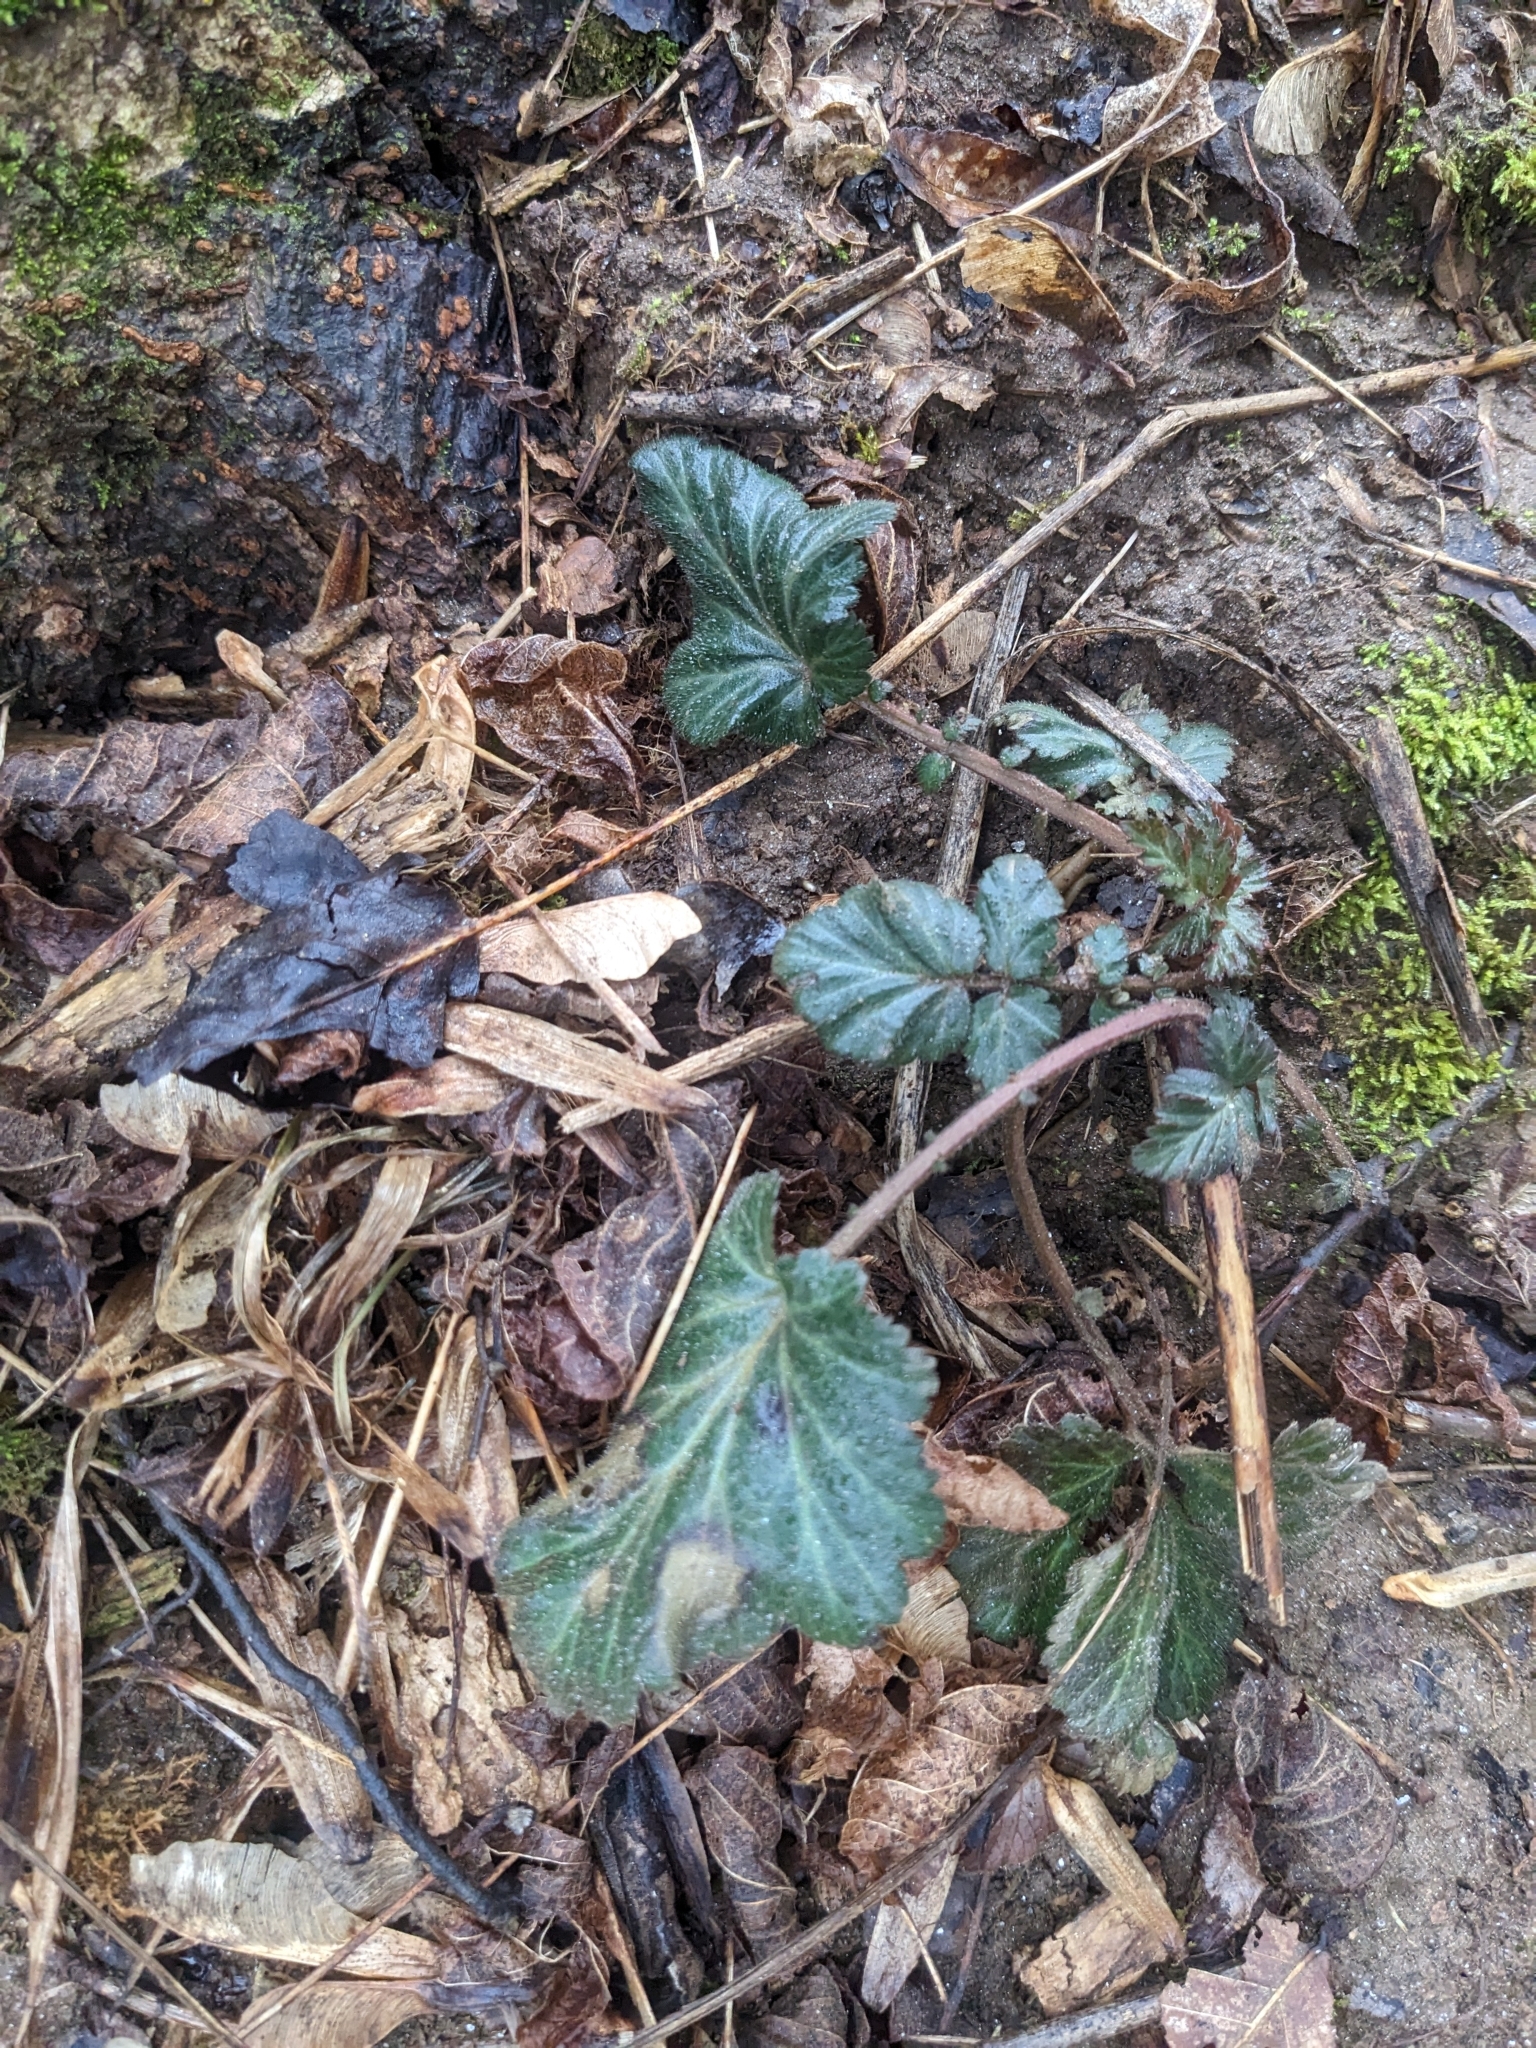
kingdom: Plantae
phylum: Tracheophyta
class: Magnoliopsida
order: Rosales
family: Rosaceae
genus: Geum
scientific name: Geum canadense
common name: White avens
